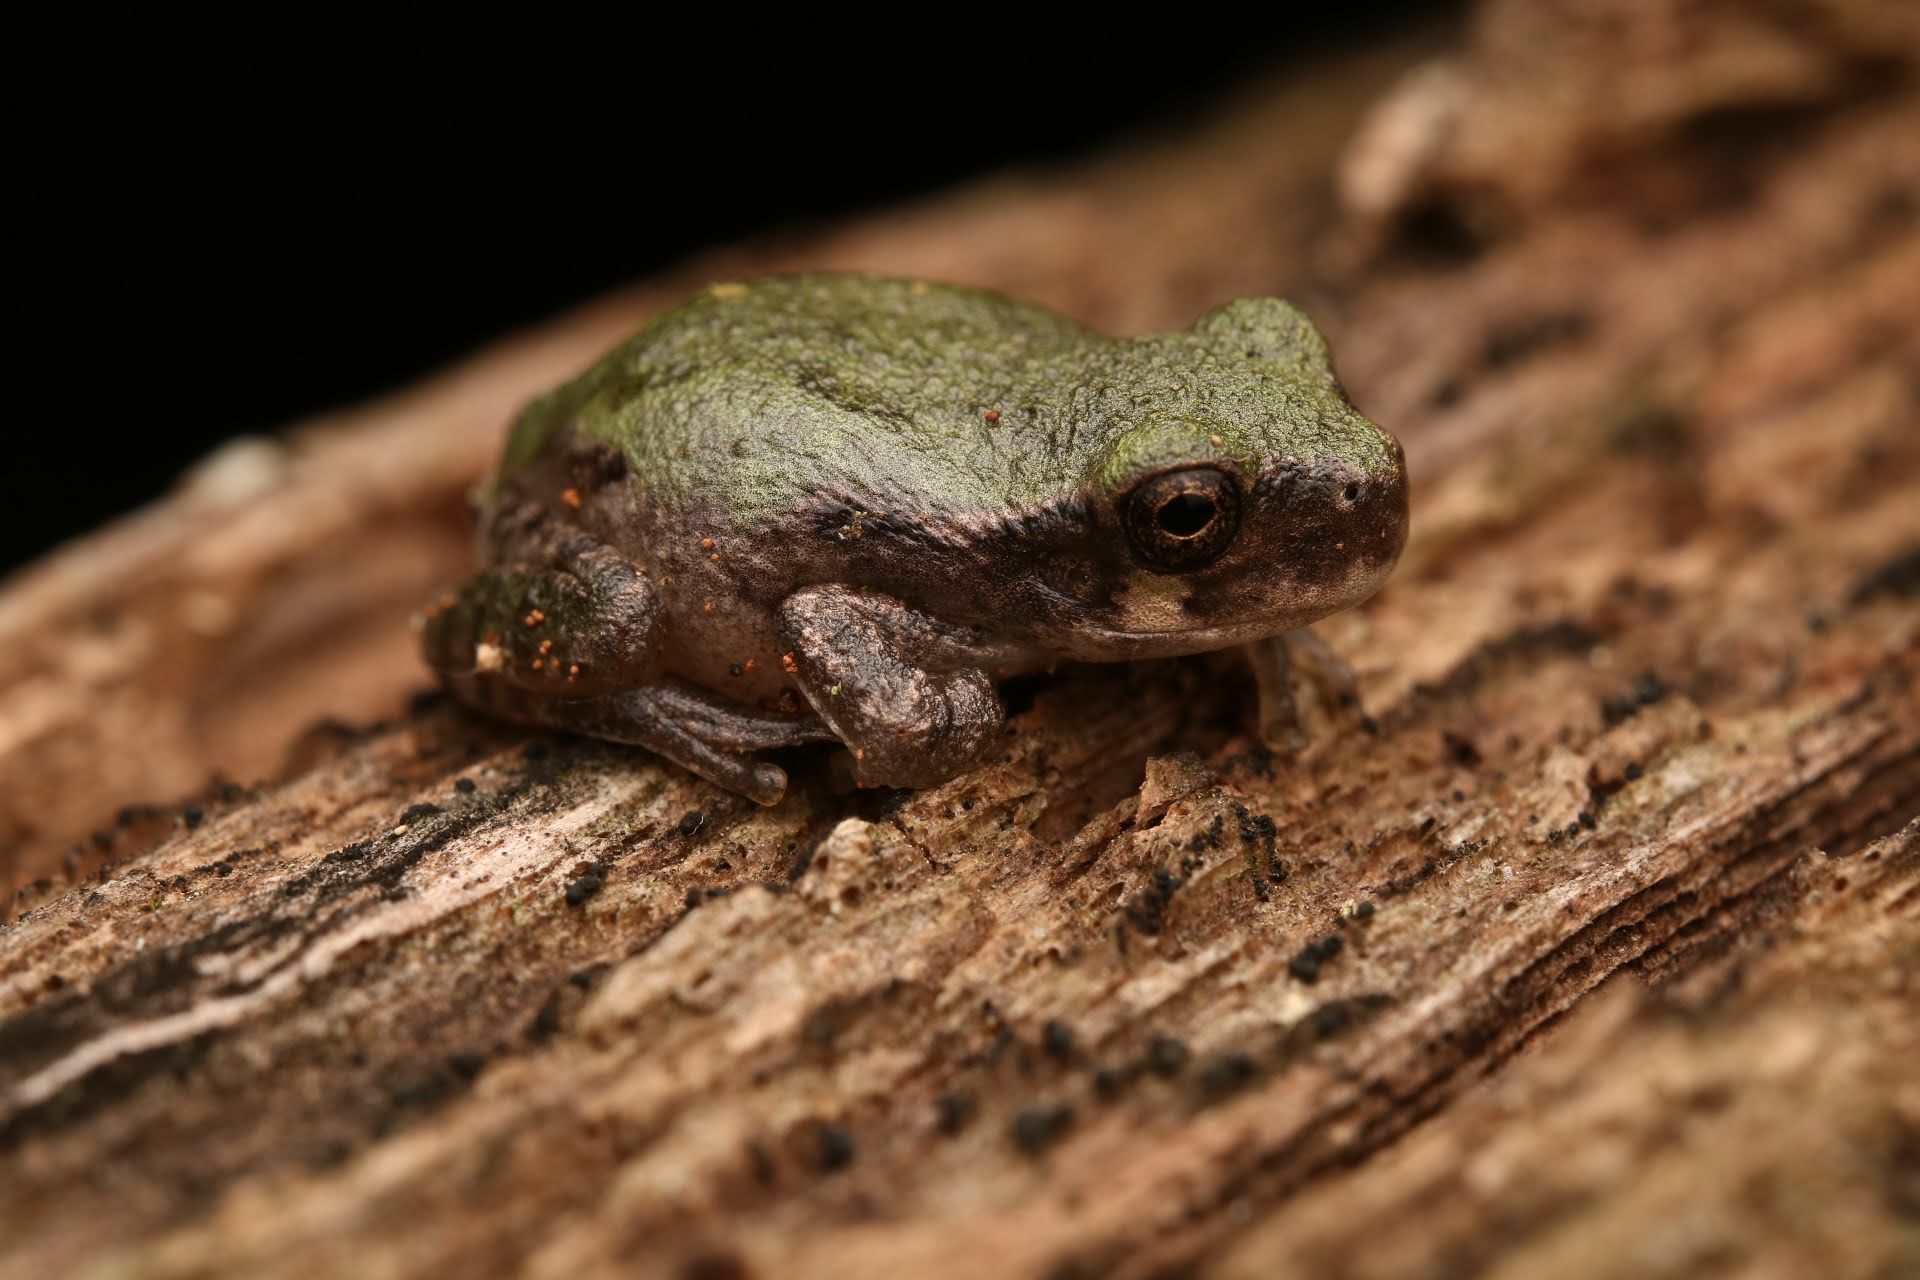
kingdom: Animalia
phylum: Chordata
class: Amphibia
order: Anura
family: Hylidae
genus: Hyla
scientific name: Hyla
